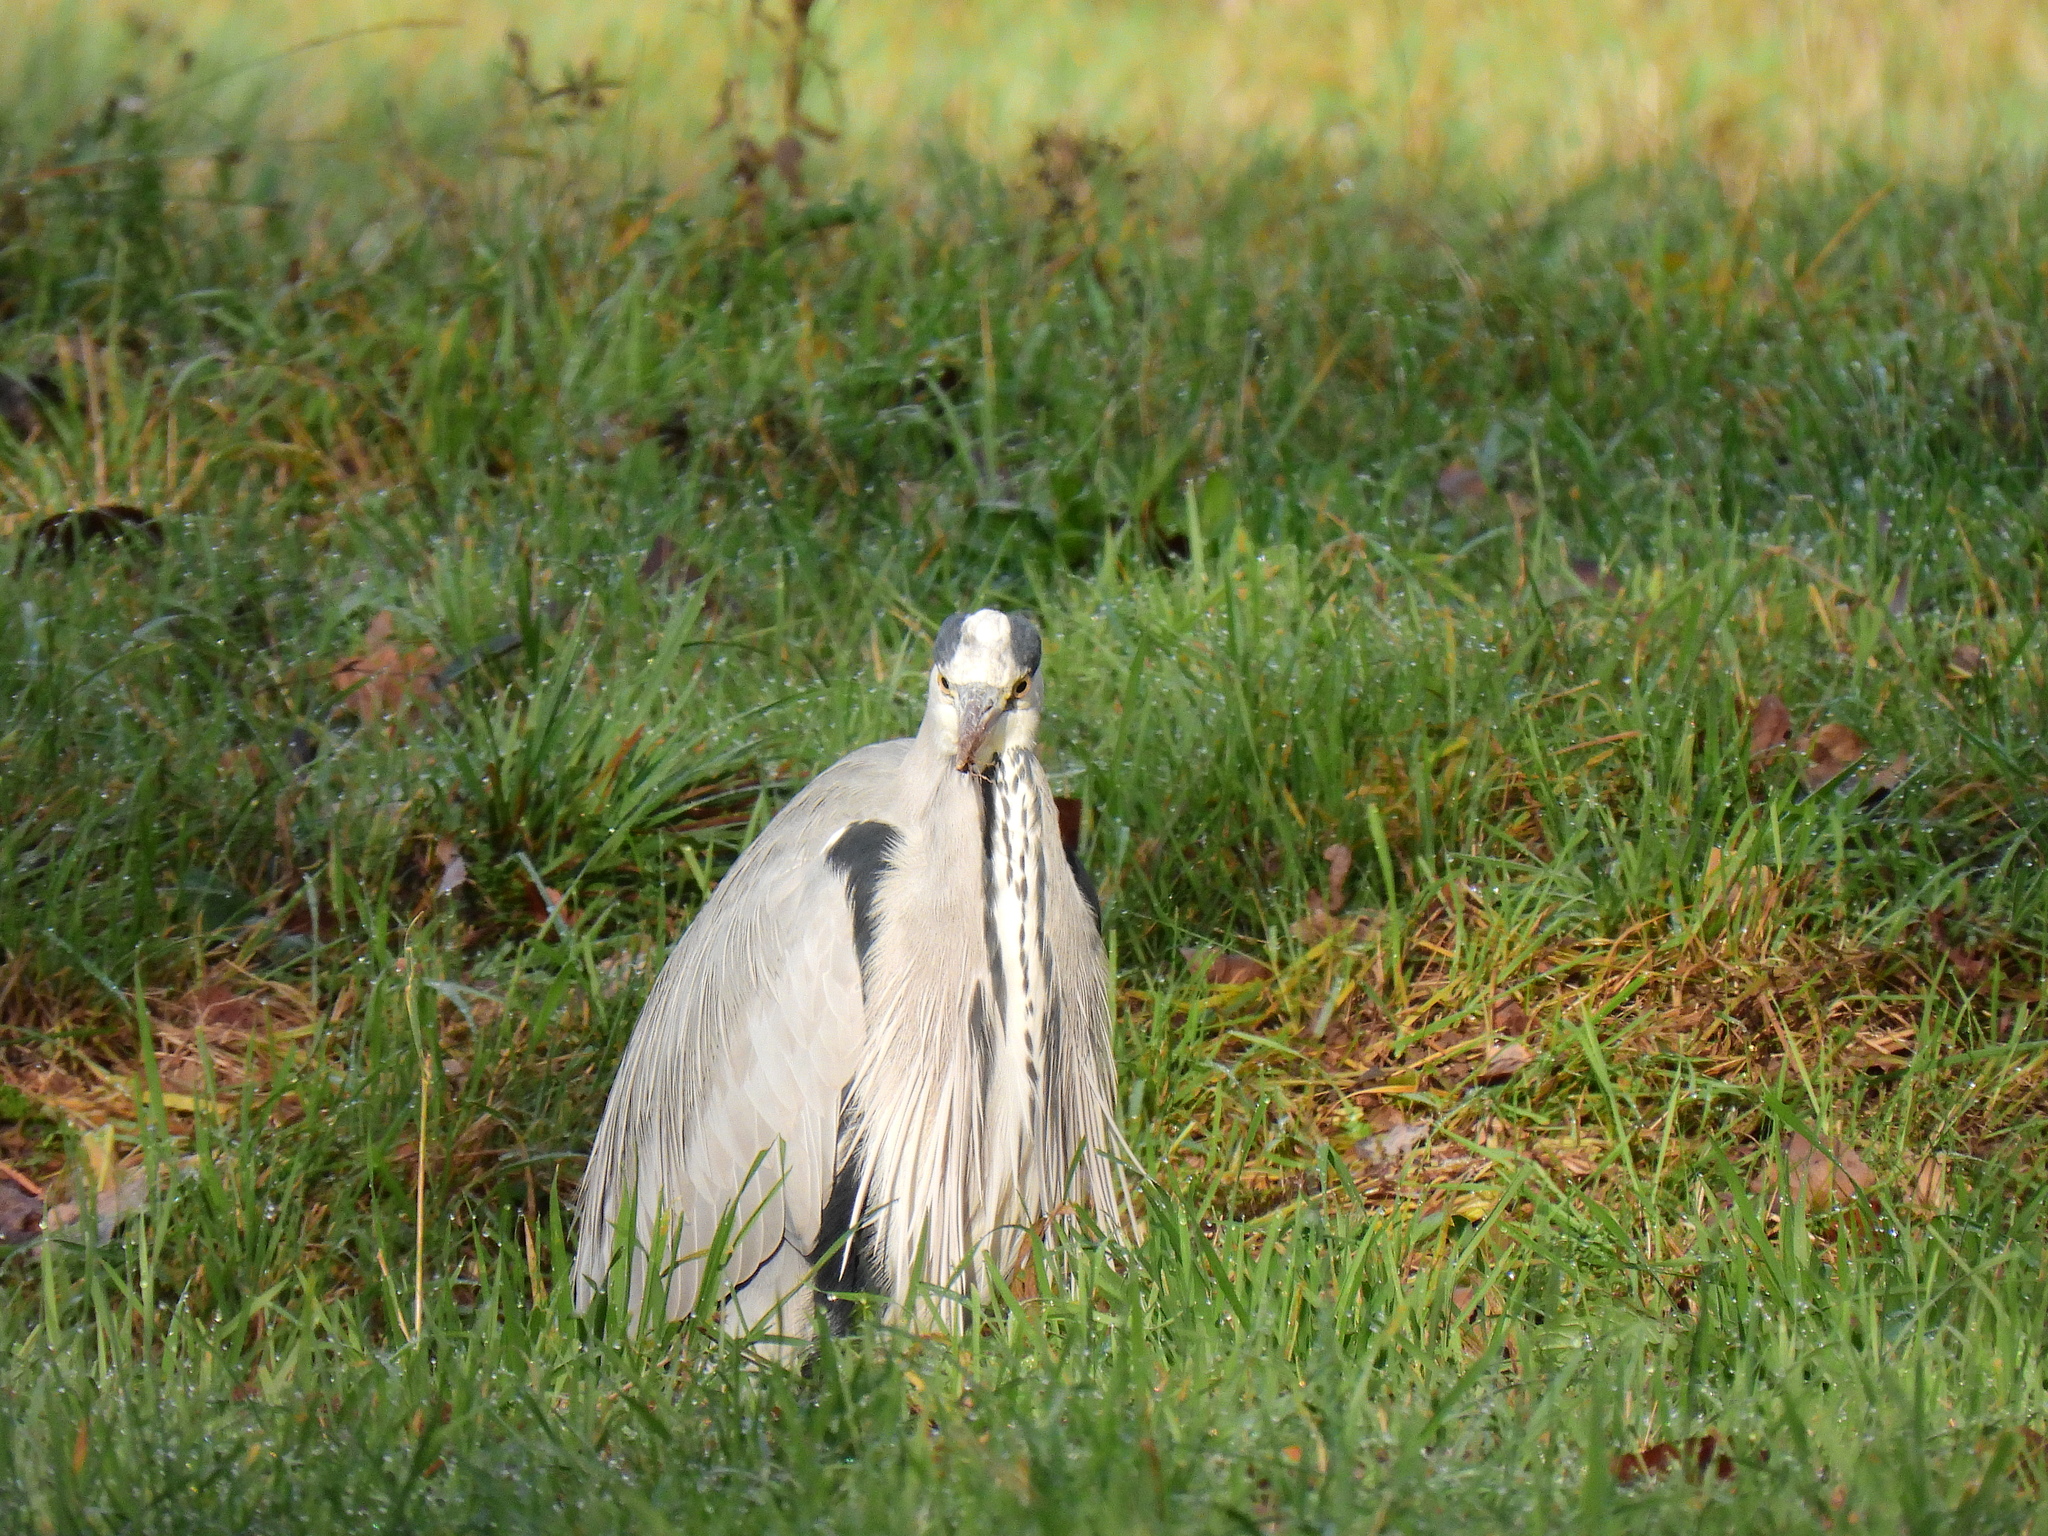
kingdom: Animalia
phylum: Chordata
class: Aves
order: Pelecaniformes
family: Ardeidae
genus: Ardea
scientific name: Ardea cinerea
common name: Grey heron
